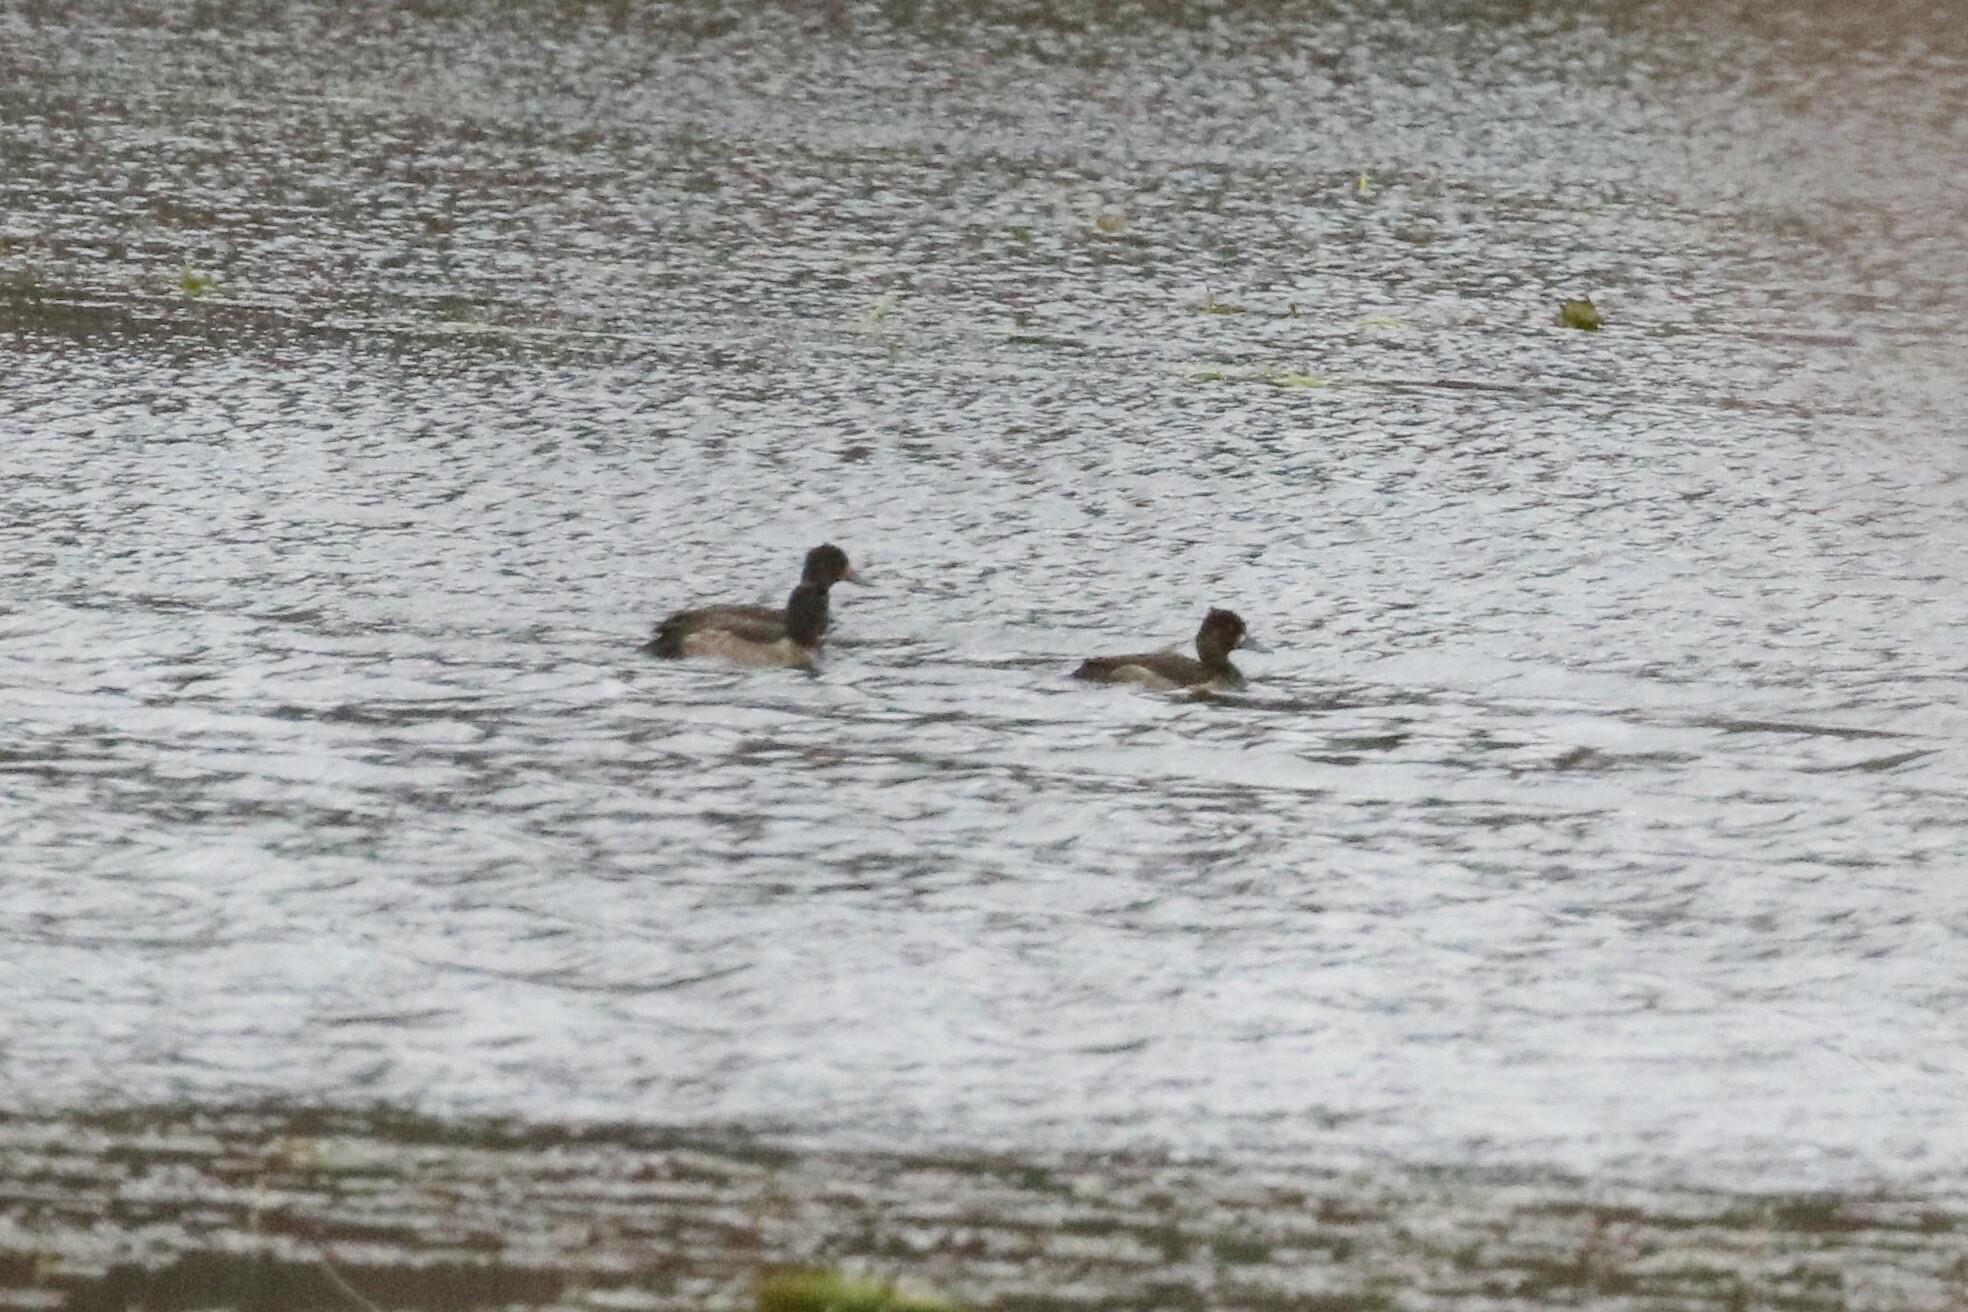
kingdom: Animalia
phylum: Chordata
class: Aves
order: Anseriformes
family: Anatidae
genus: Aythya
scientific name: Aythya fuligula
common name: Tufted duck
